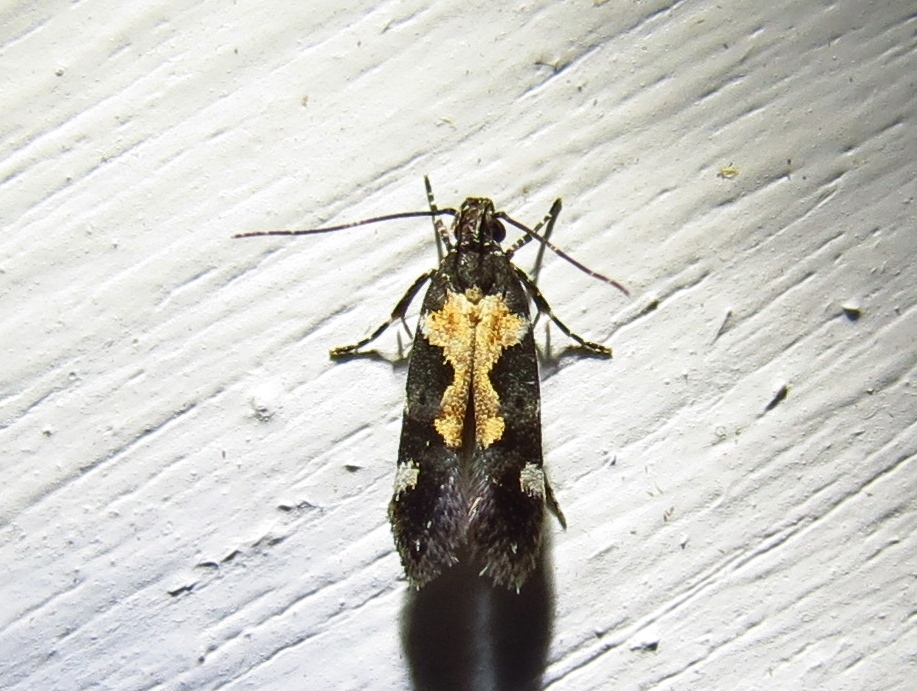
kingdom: Animalia
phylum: Arthropoda
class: Insecta
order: Lepidoptera
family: Gelechiidae
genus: Stegasta
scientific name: Stegasta bosqueella
